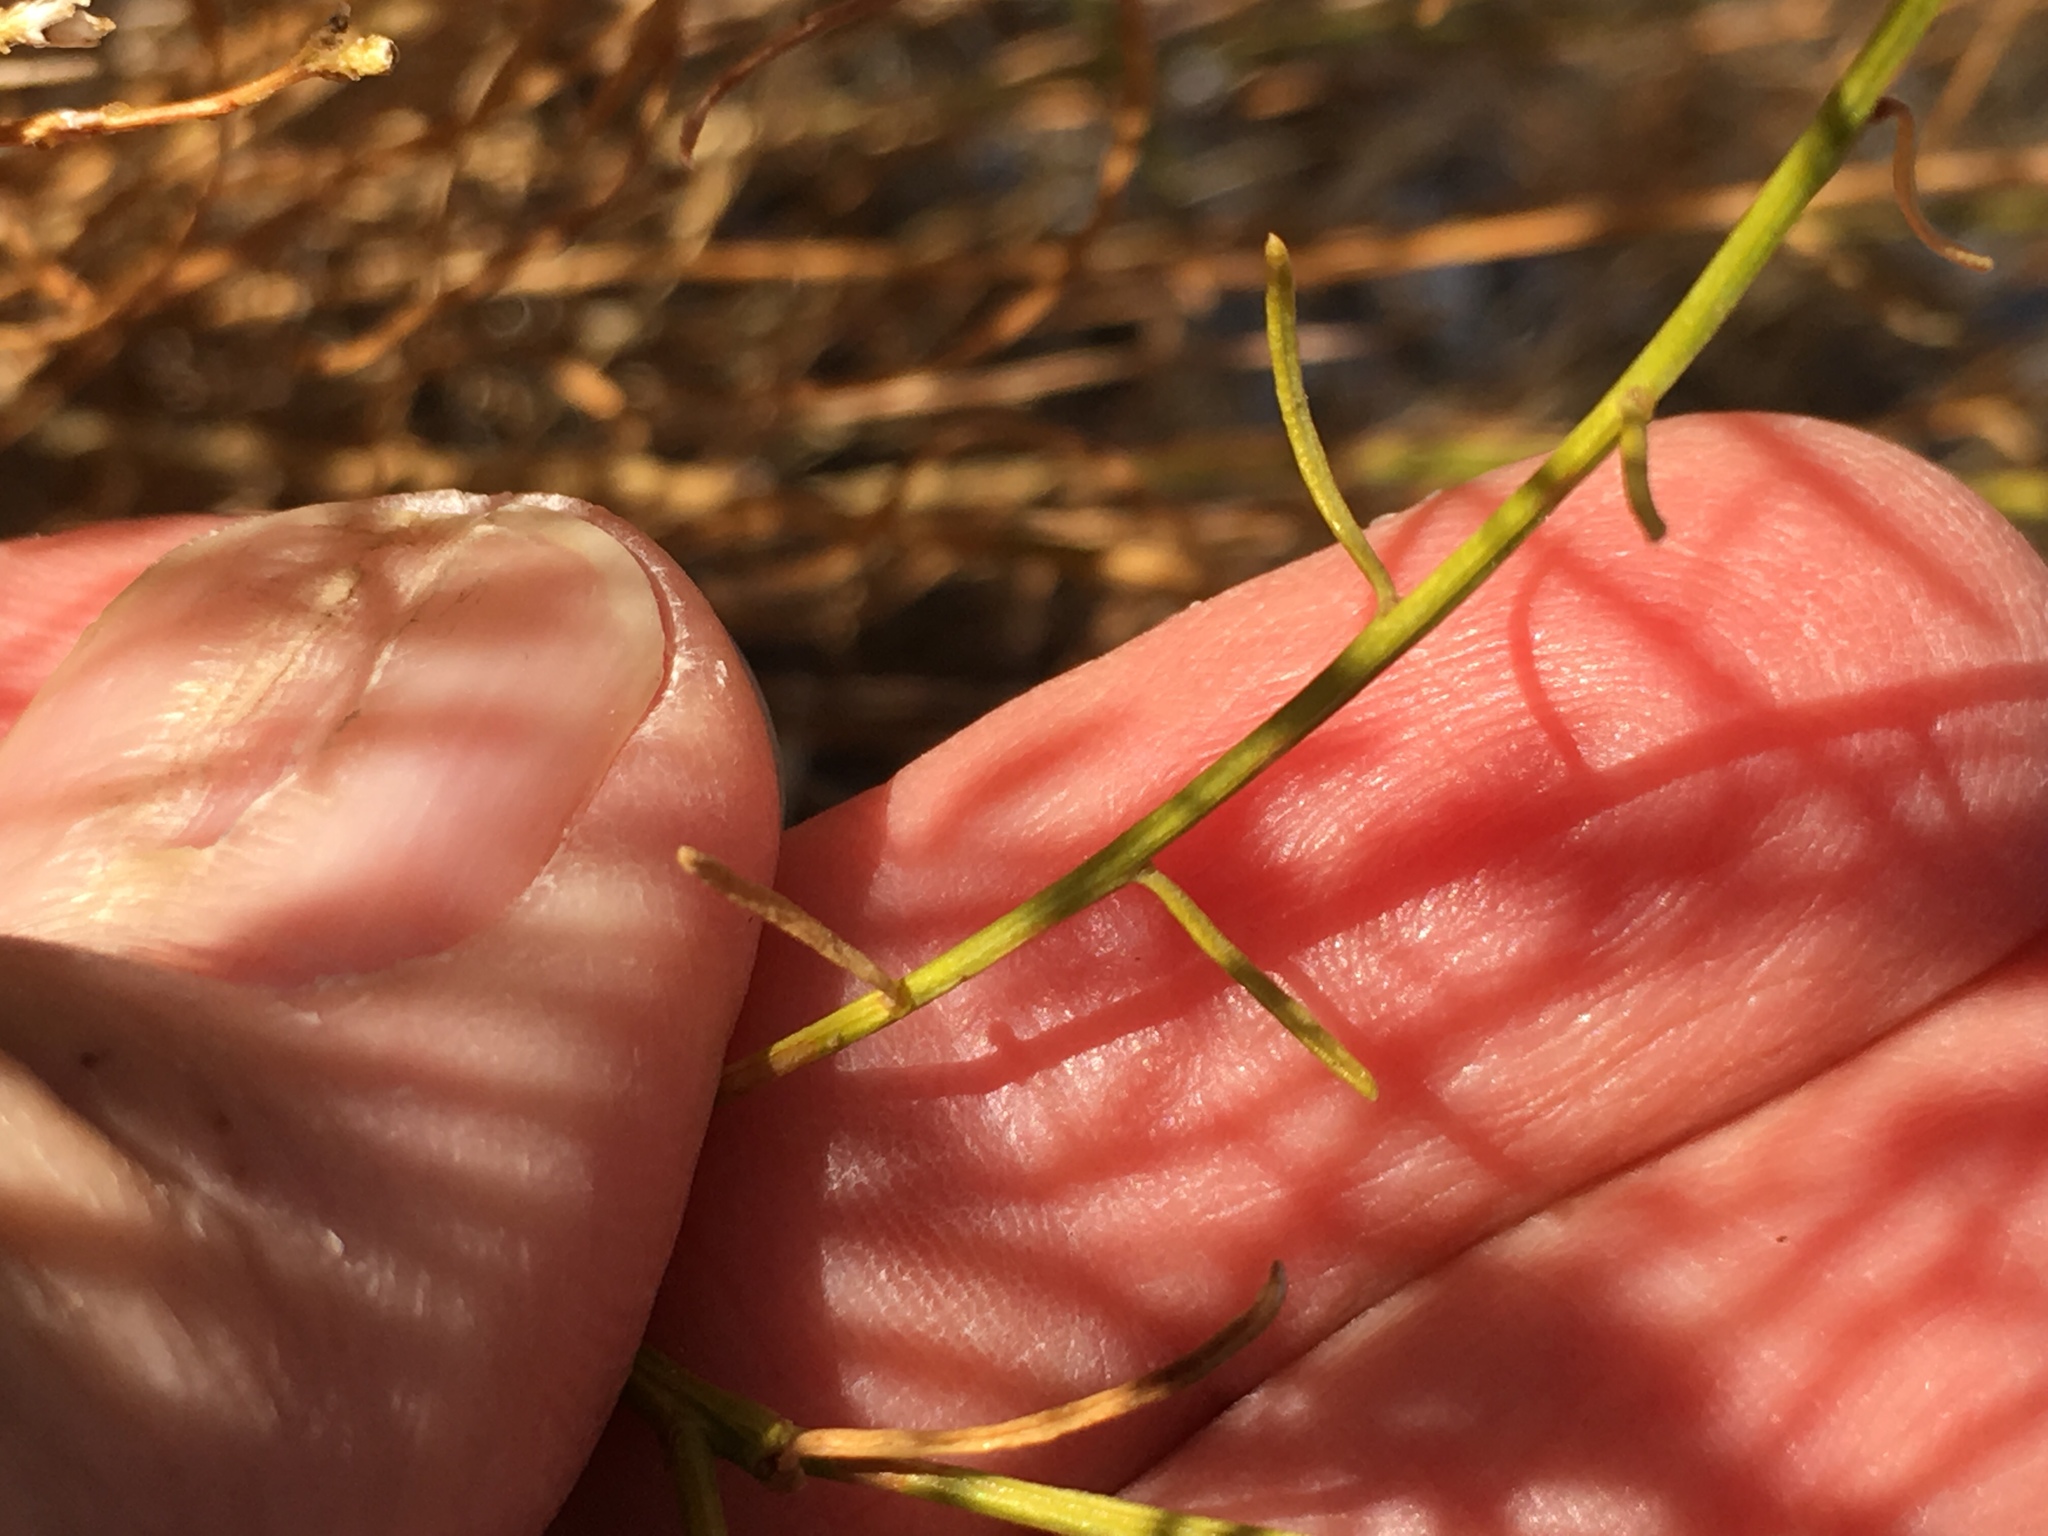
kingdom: Plantae
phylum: Tracheophyta
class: Magnoliopsida
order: Asterales
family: Asteraceae
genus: Gutierrezia
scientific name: Gutierrezia sarothrae
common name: Broom snakeweed
